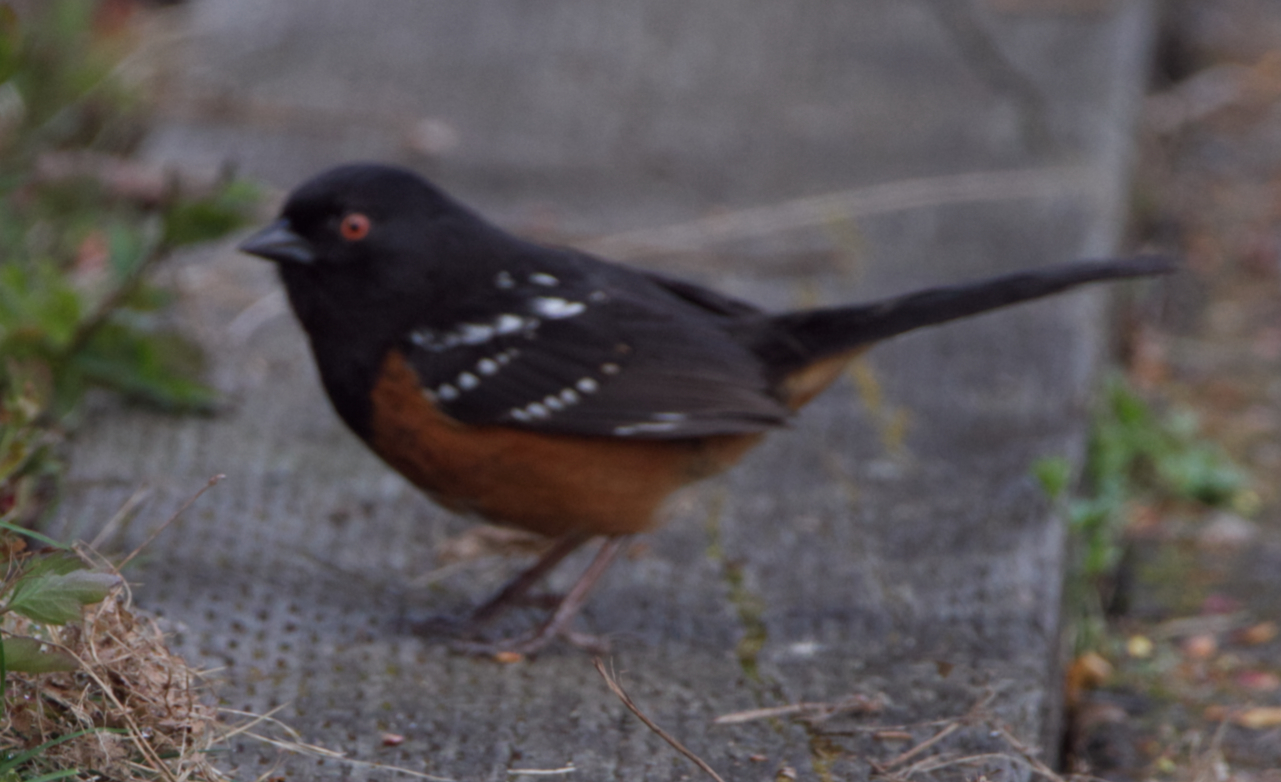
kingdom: Animalia
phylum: Chordata
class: Aves
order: Passeriformes
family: Passerellidae
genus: Pipilo
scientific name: Pipilo maculatus
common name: Spotted towhee
